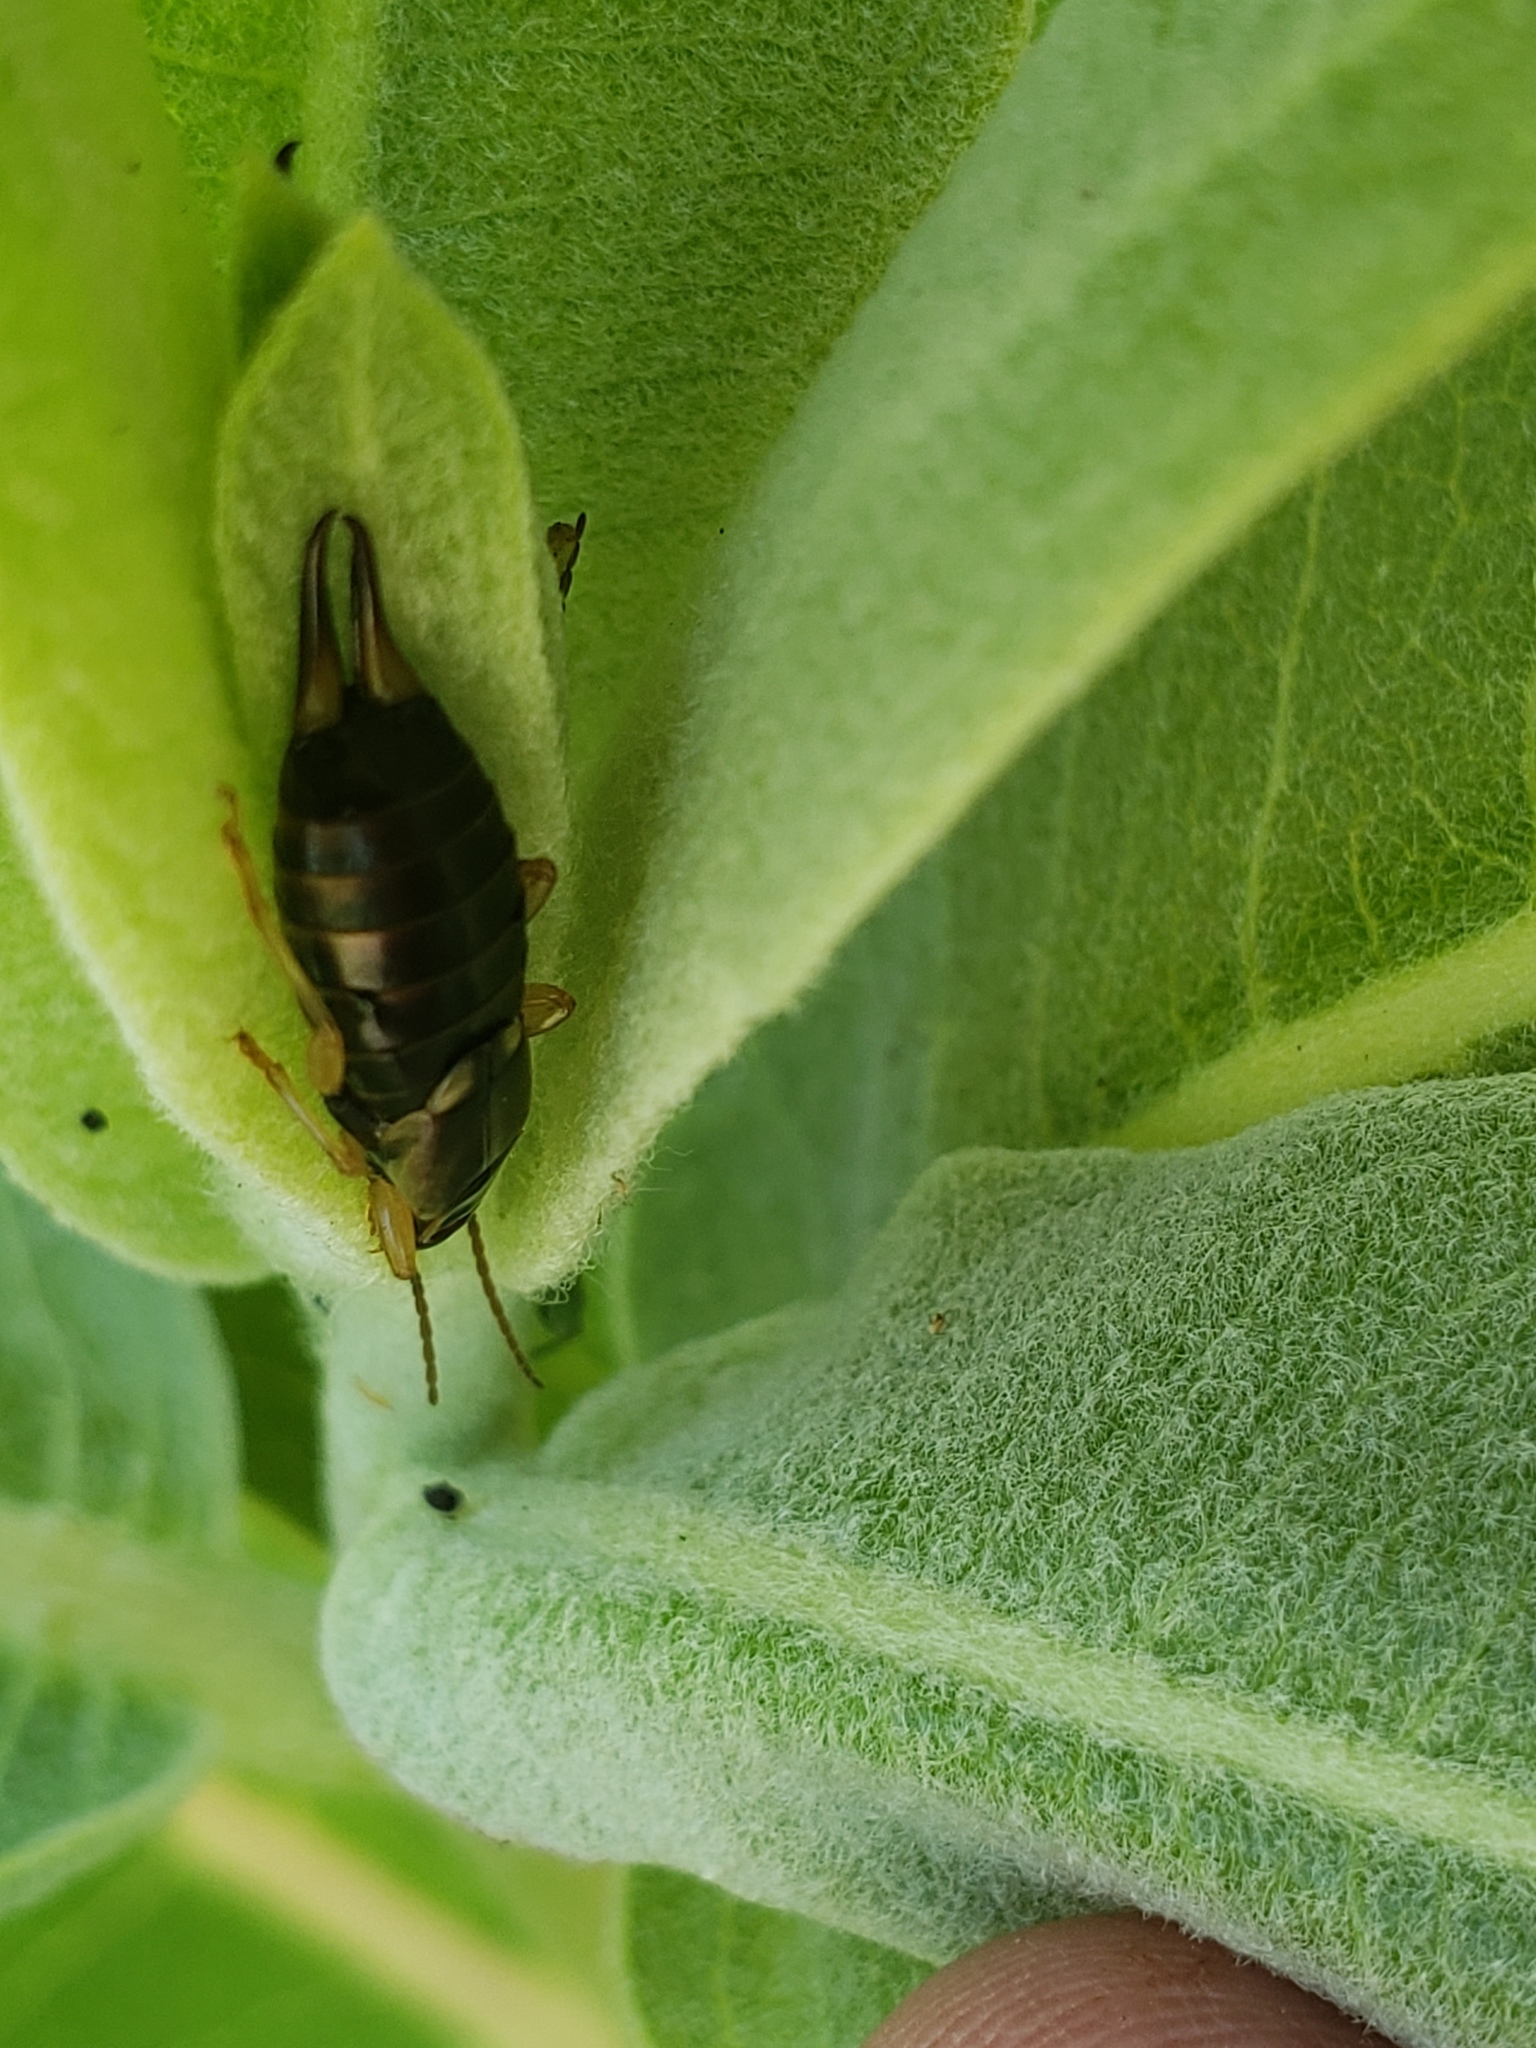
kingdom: Animalia
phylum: Arthropoda
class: Insecta
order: Dermaptera
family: Forficulidae
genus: Forficula
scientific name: Forficula
